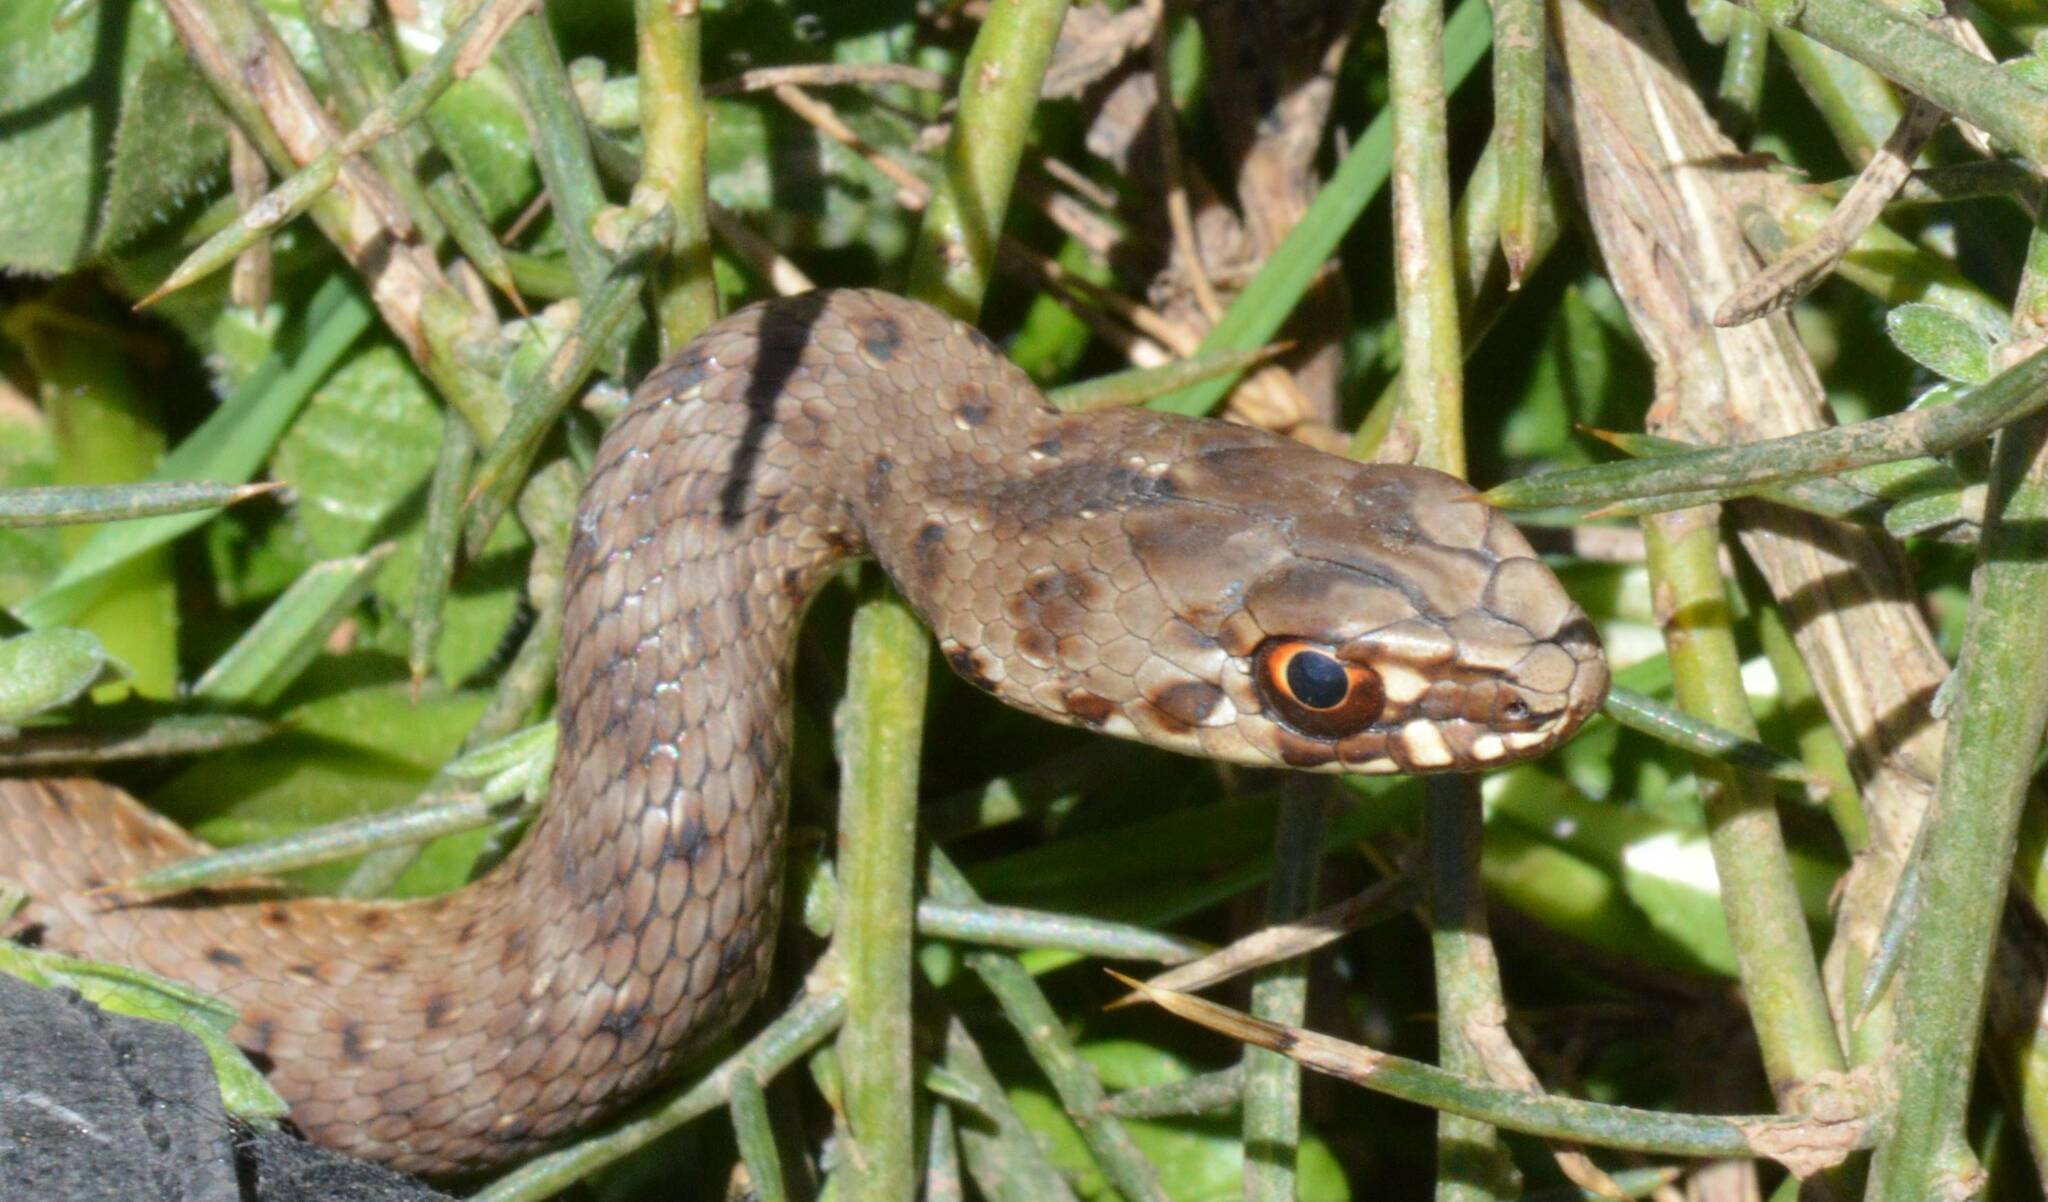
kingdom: Animalia
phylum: Chordata
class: Squamata
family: Psammophiidae
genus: Malpolon
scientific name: Malpolon insignitus
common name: Eastern montpellier snake
